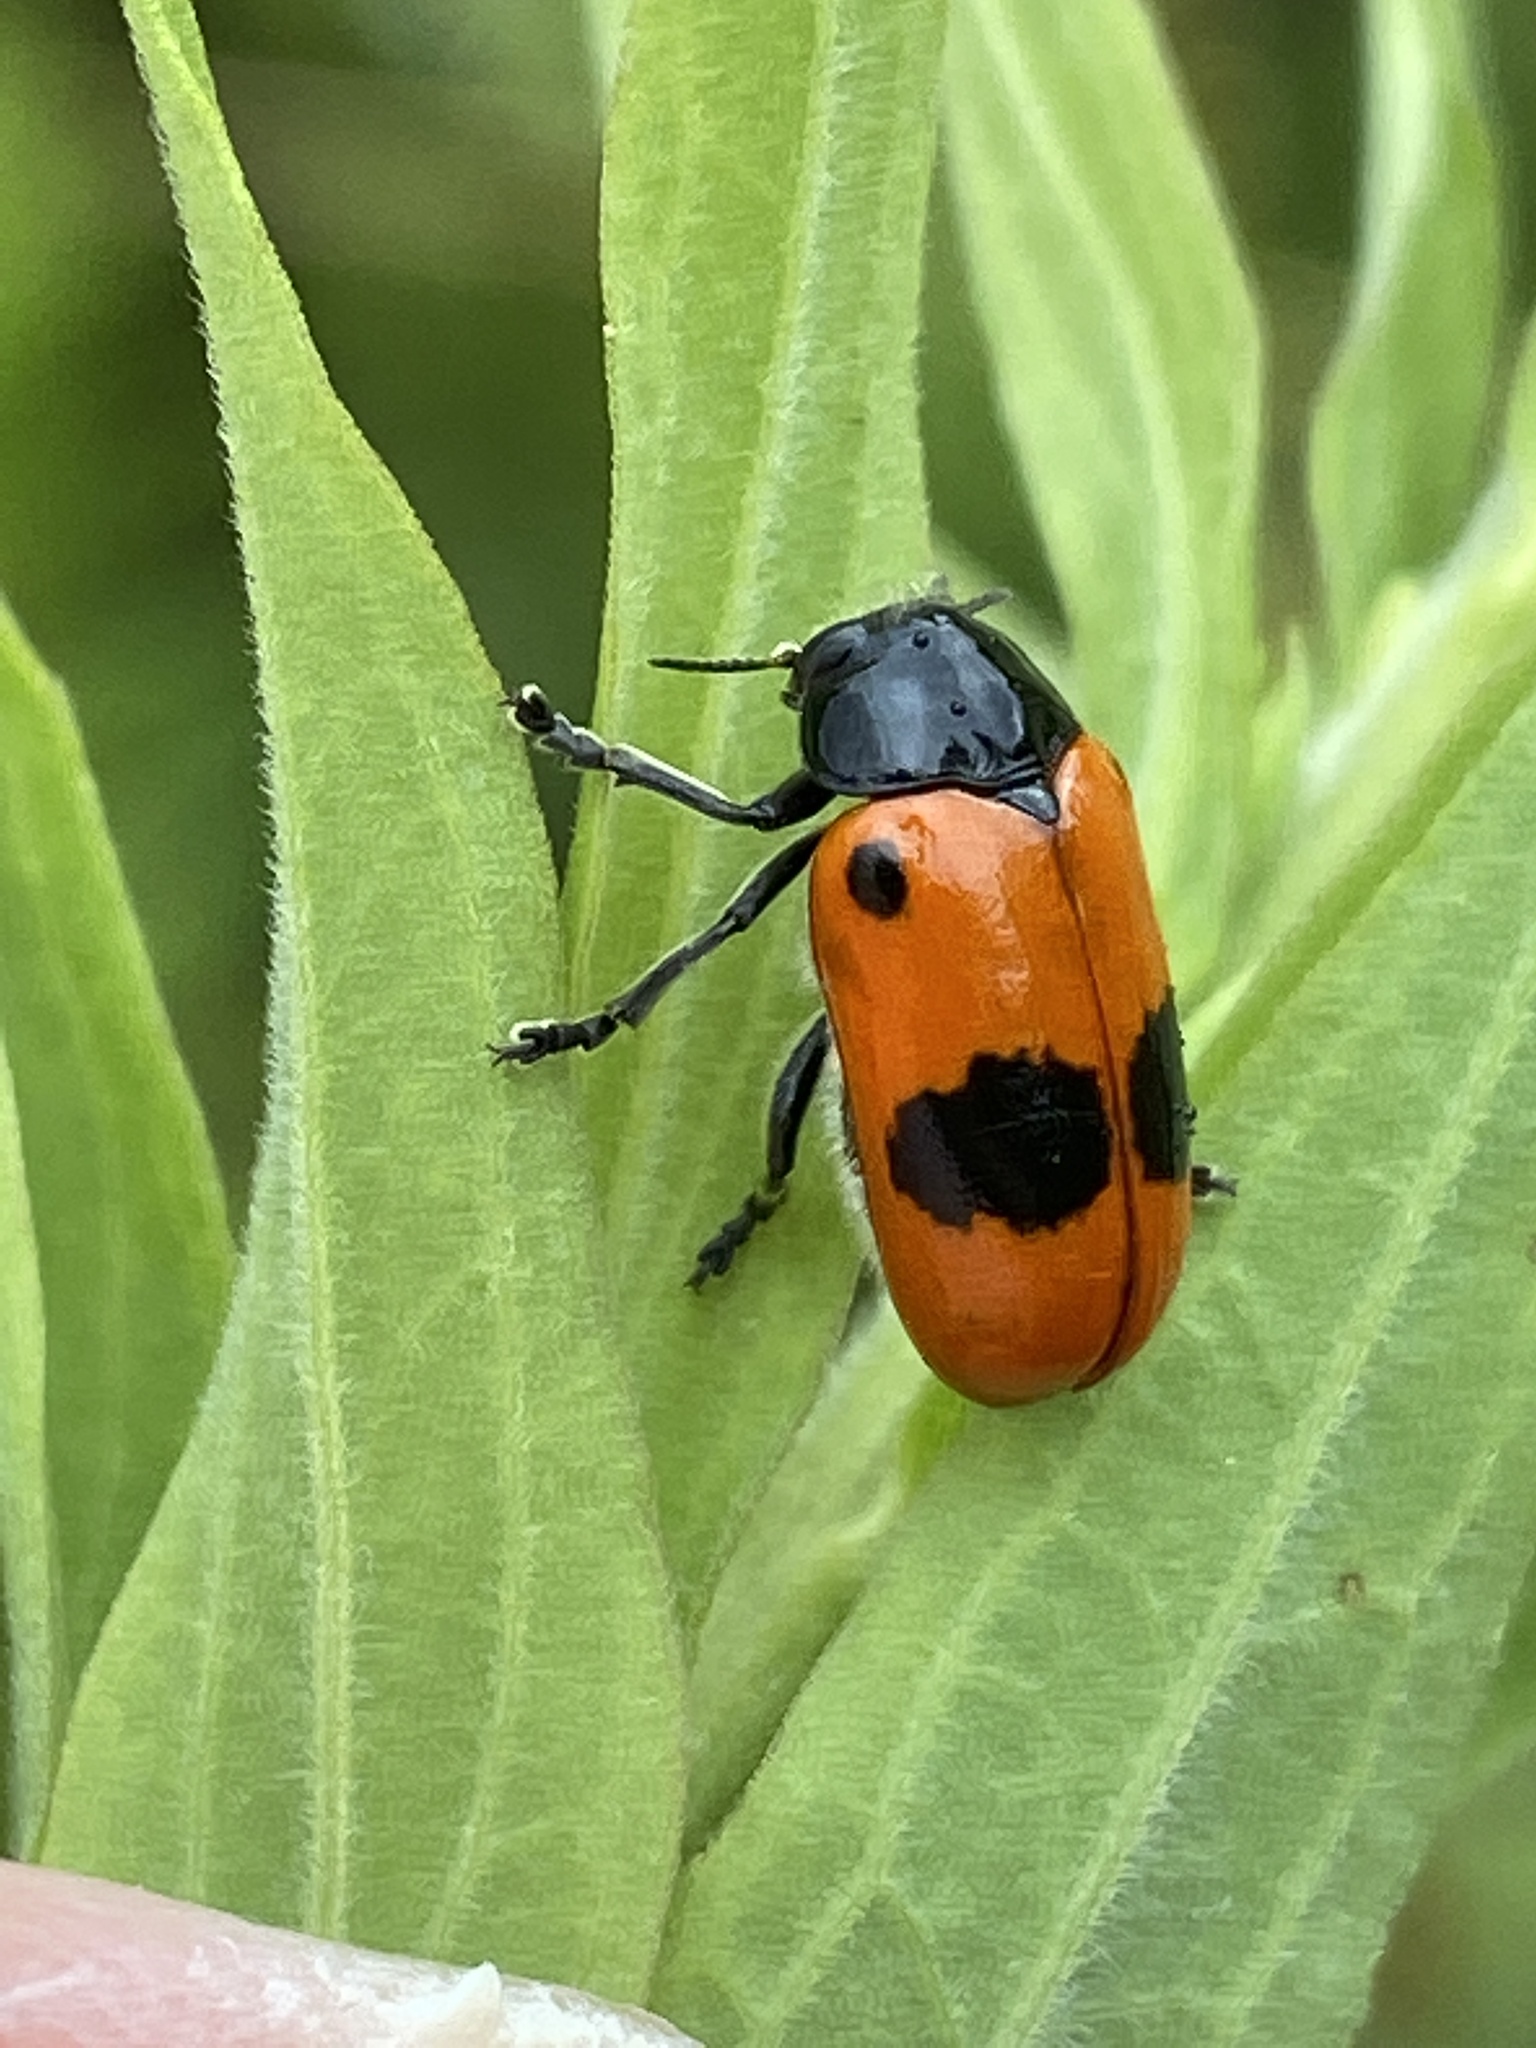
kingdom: Animalia
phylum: Arthropoda
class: Insecta
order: Coleoptera
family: Chrysomelidae
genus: Clytra
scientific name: Clytra laeviuscula
